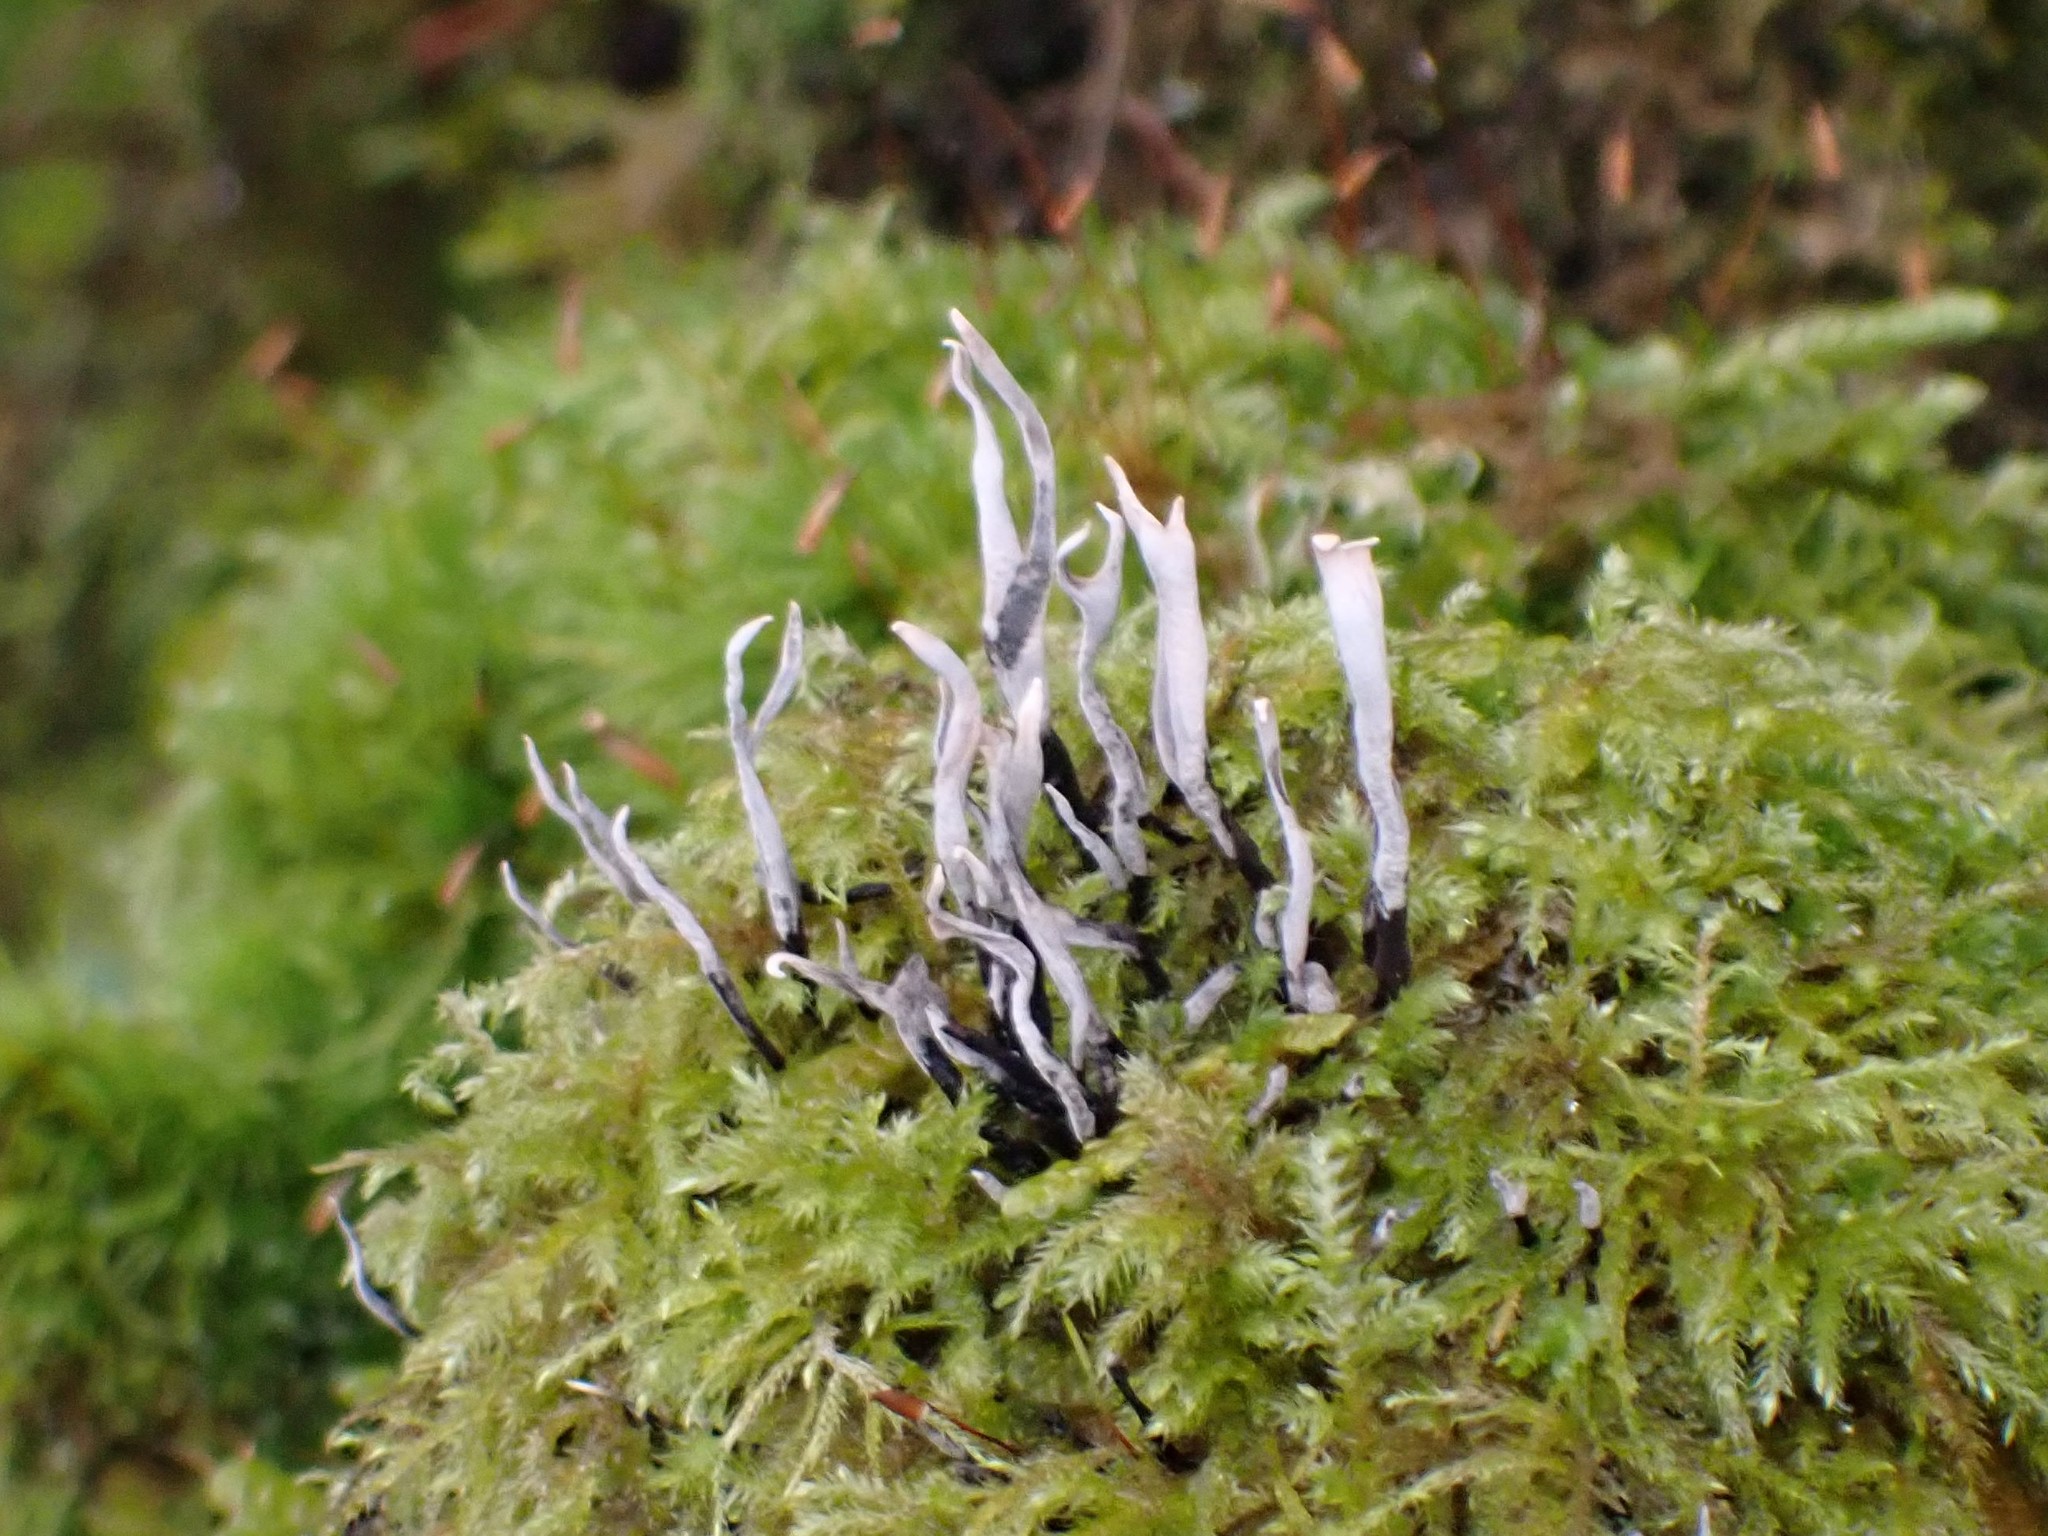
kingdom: Fungi
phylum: Ascomycota
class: Sordariomycetes
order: Xylariales
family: Xylariaceae
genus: Xylaria
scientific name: Xylaria hypoxylon
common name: Candle-snuff fungus
